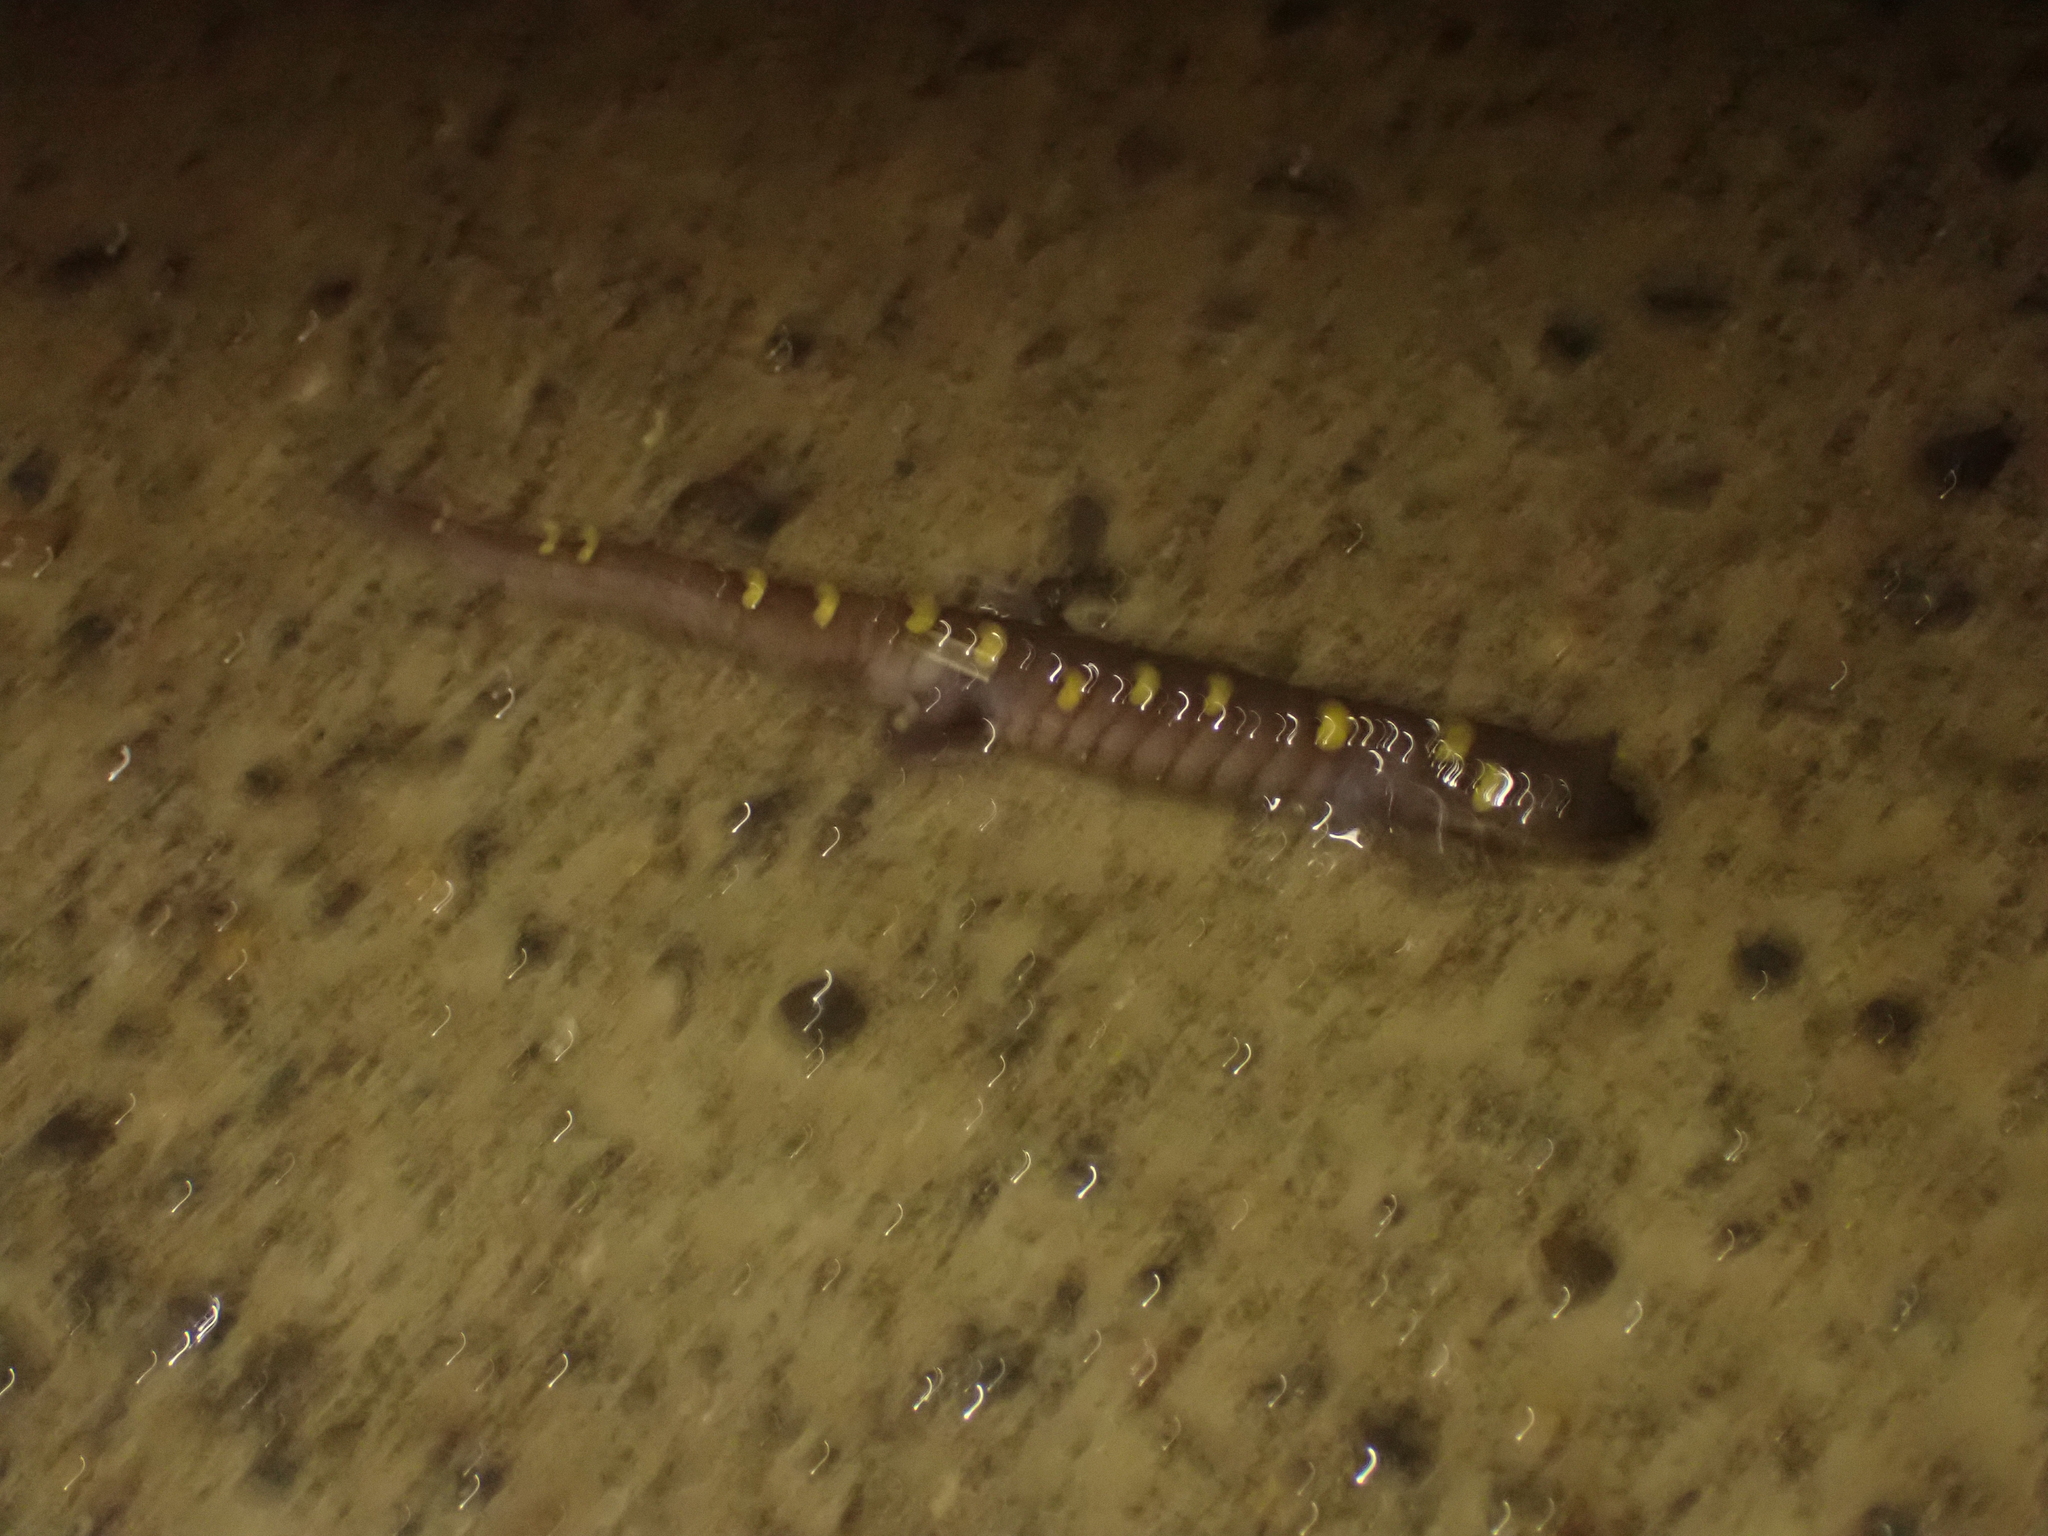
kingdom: Animalia
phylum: Chordata
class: Amphibia
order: Caudata
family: Ambystomatidae
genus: Ambystoma
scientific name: Ambystoma maculatum
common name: Spotted salamander
